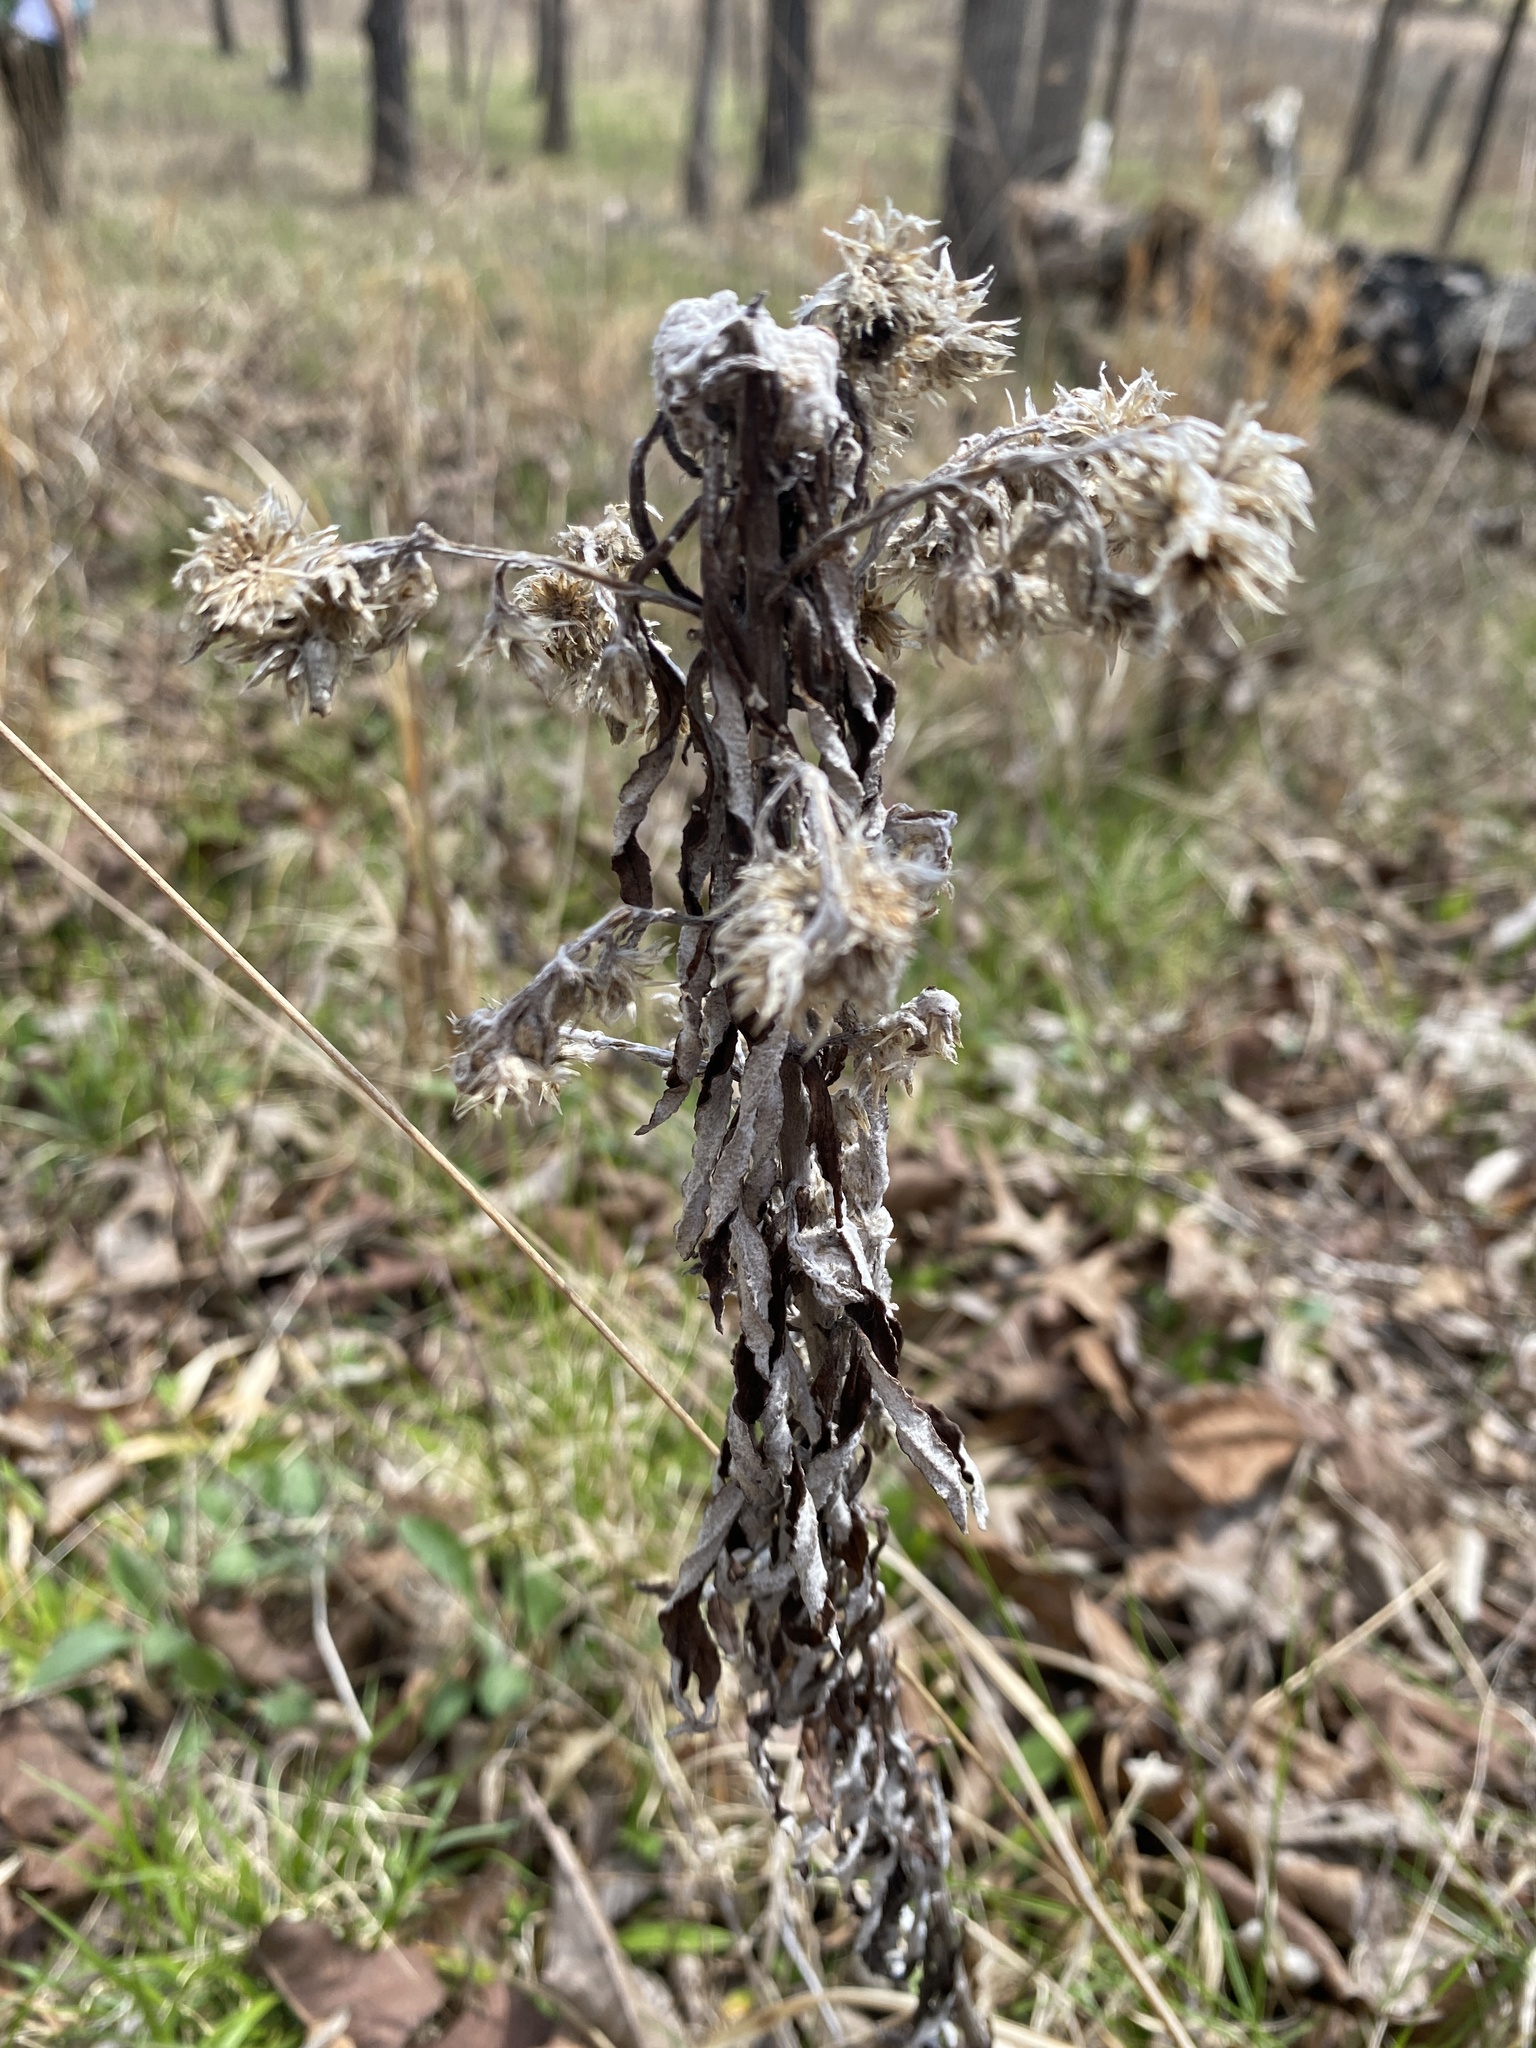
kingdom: Plantae
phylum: Tracheophyta
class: Magnoliopsida
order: Asterales
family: Asteraceae
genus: Pseudognaphalium
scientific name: Pseudognaphalium obtusifolium
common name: Eastern rabbit-tobacco
